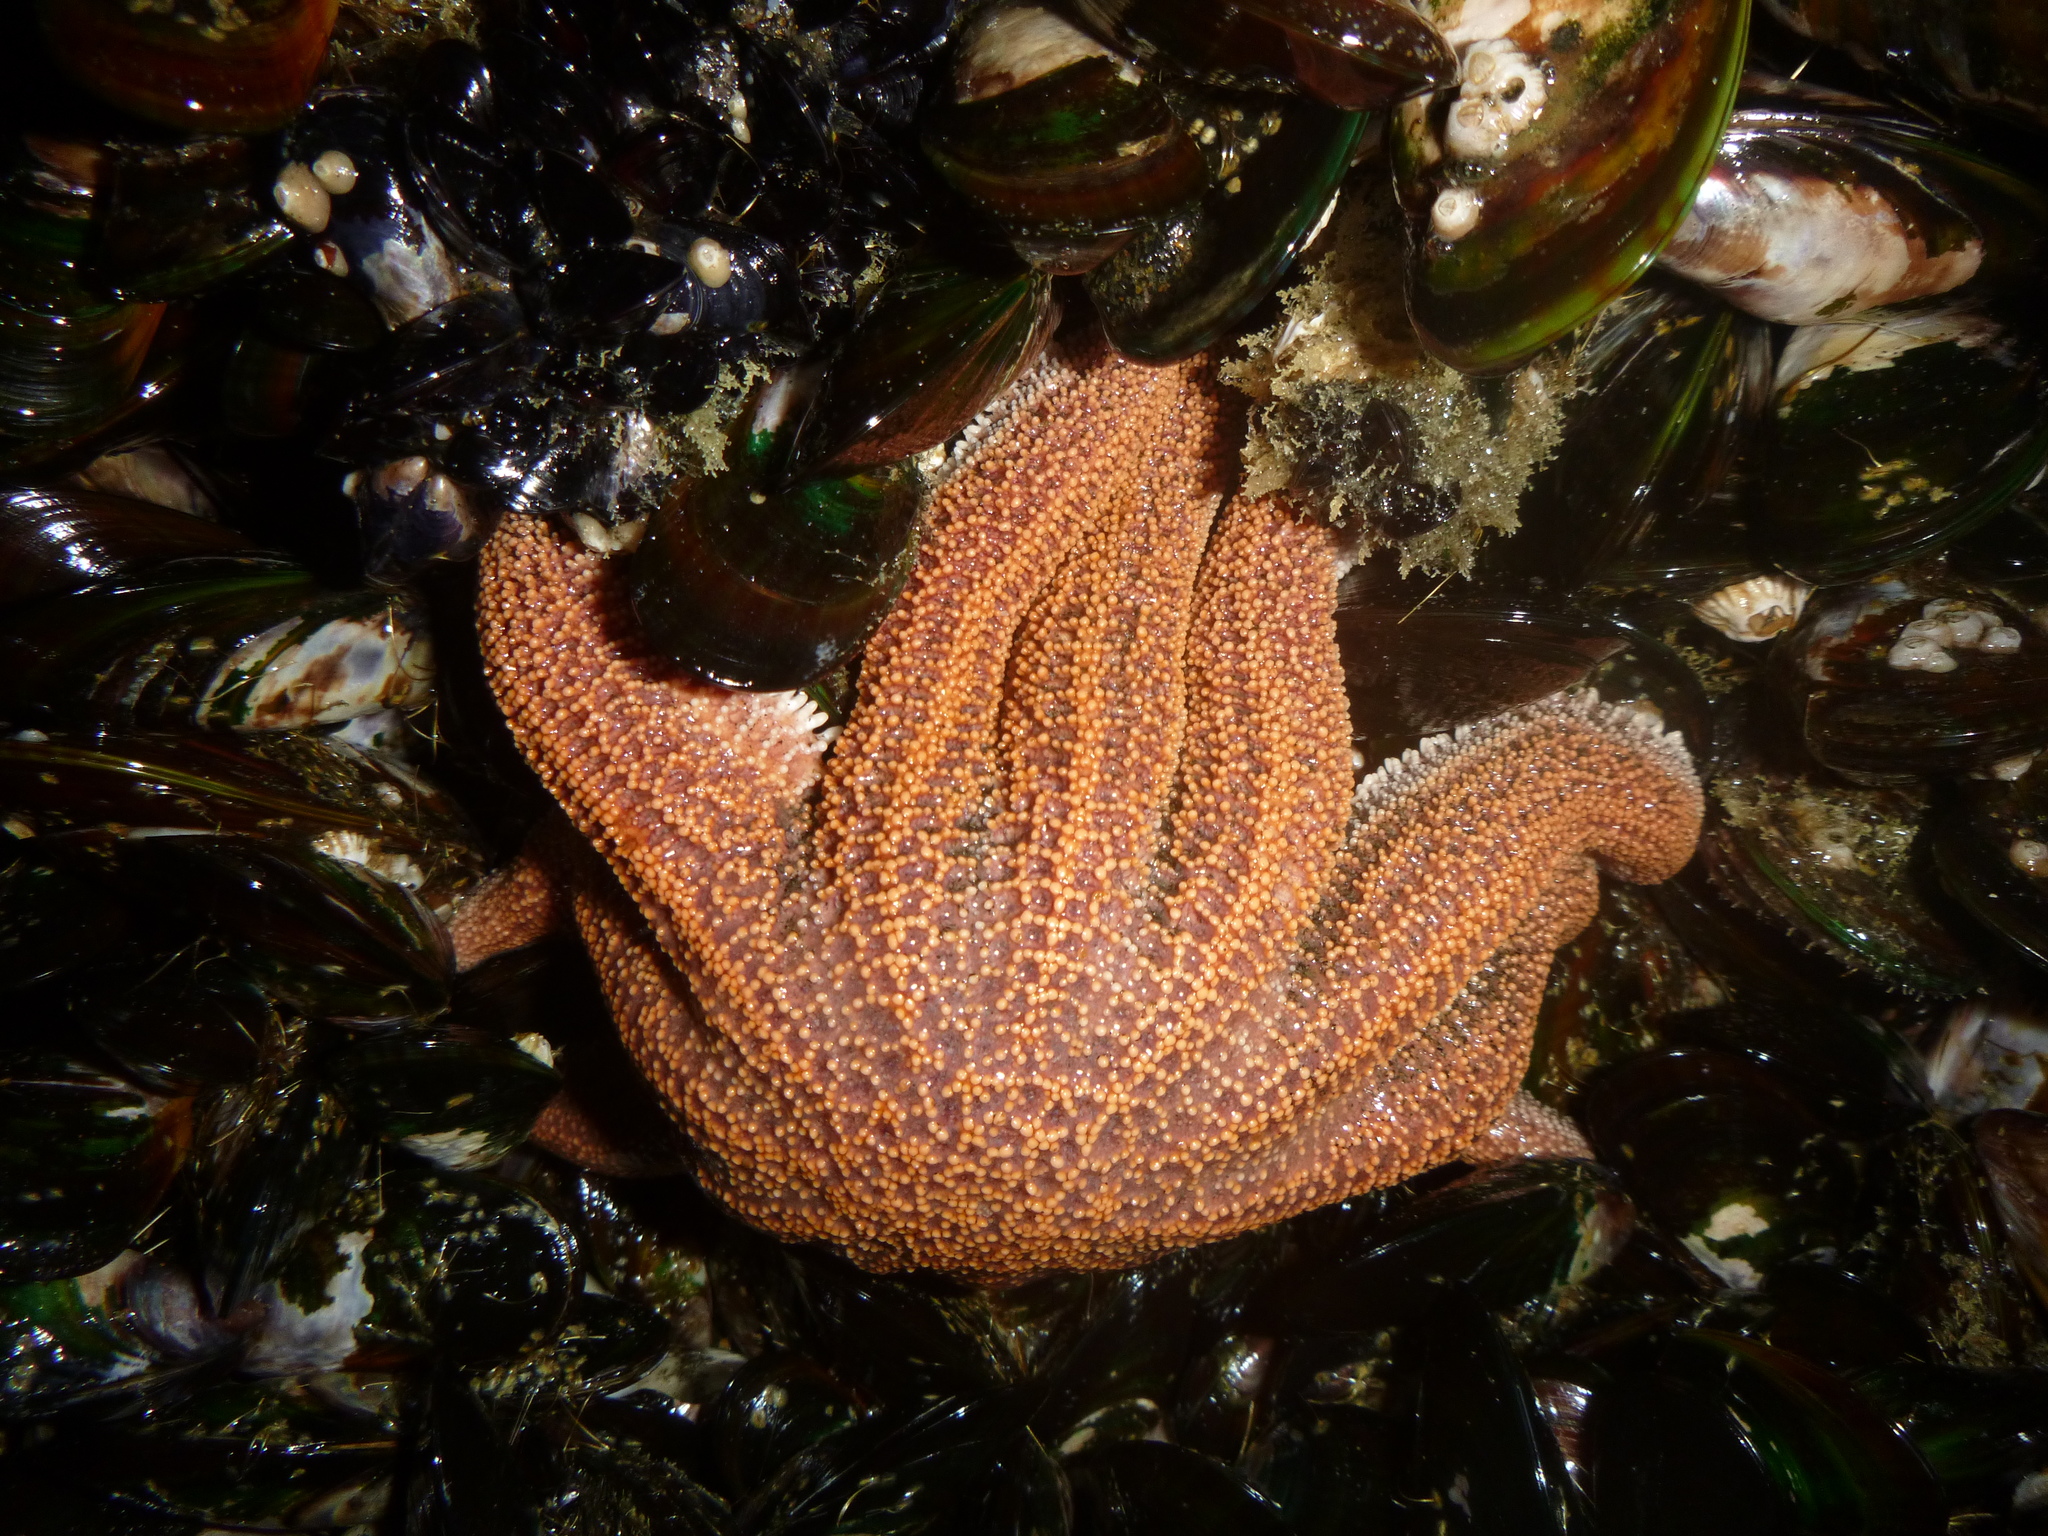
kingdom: Animalia
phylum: Echinodermata
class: Asteroidea
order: Forcipulatida
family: Stichasteridae
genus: Stichaster
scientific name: Stichaster australis
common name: Reef starfish
